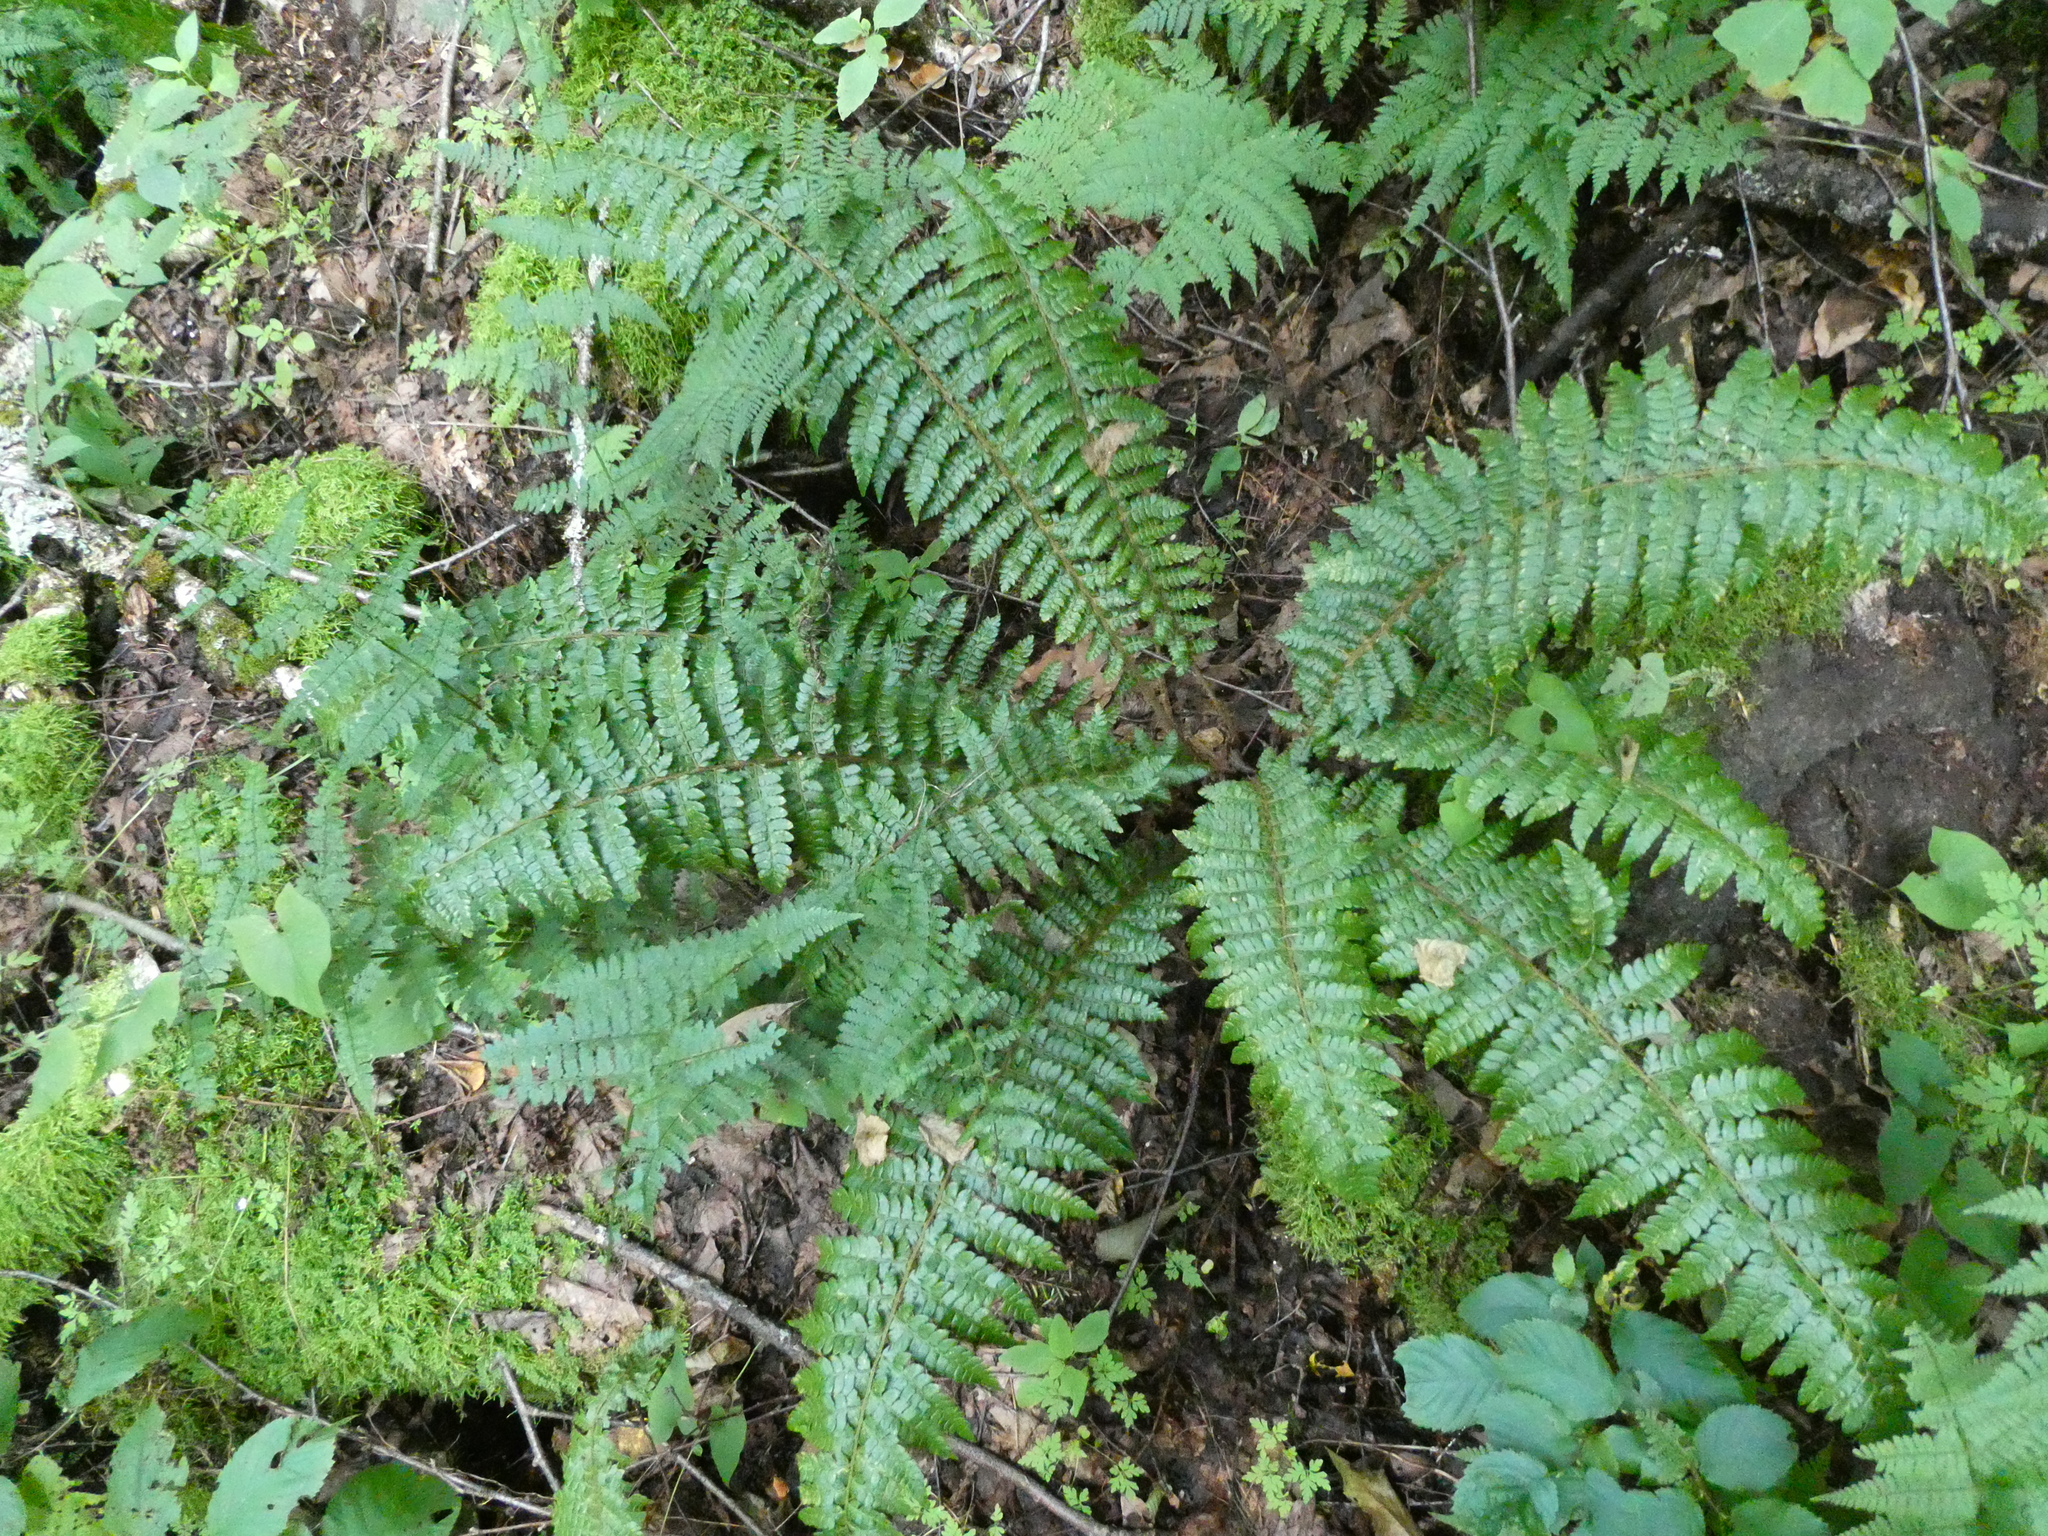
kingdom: Plantae
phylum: Tracheophyta
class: Polypodiopsida
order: Polypodiales
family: Dryopteridaceae
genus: Polystichum
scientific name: Polystichum braunii
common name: Braun's holly fern
